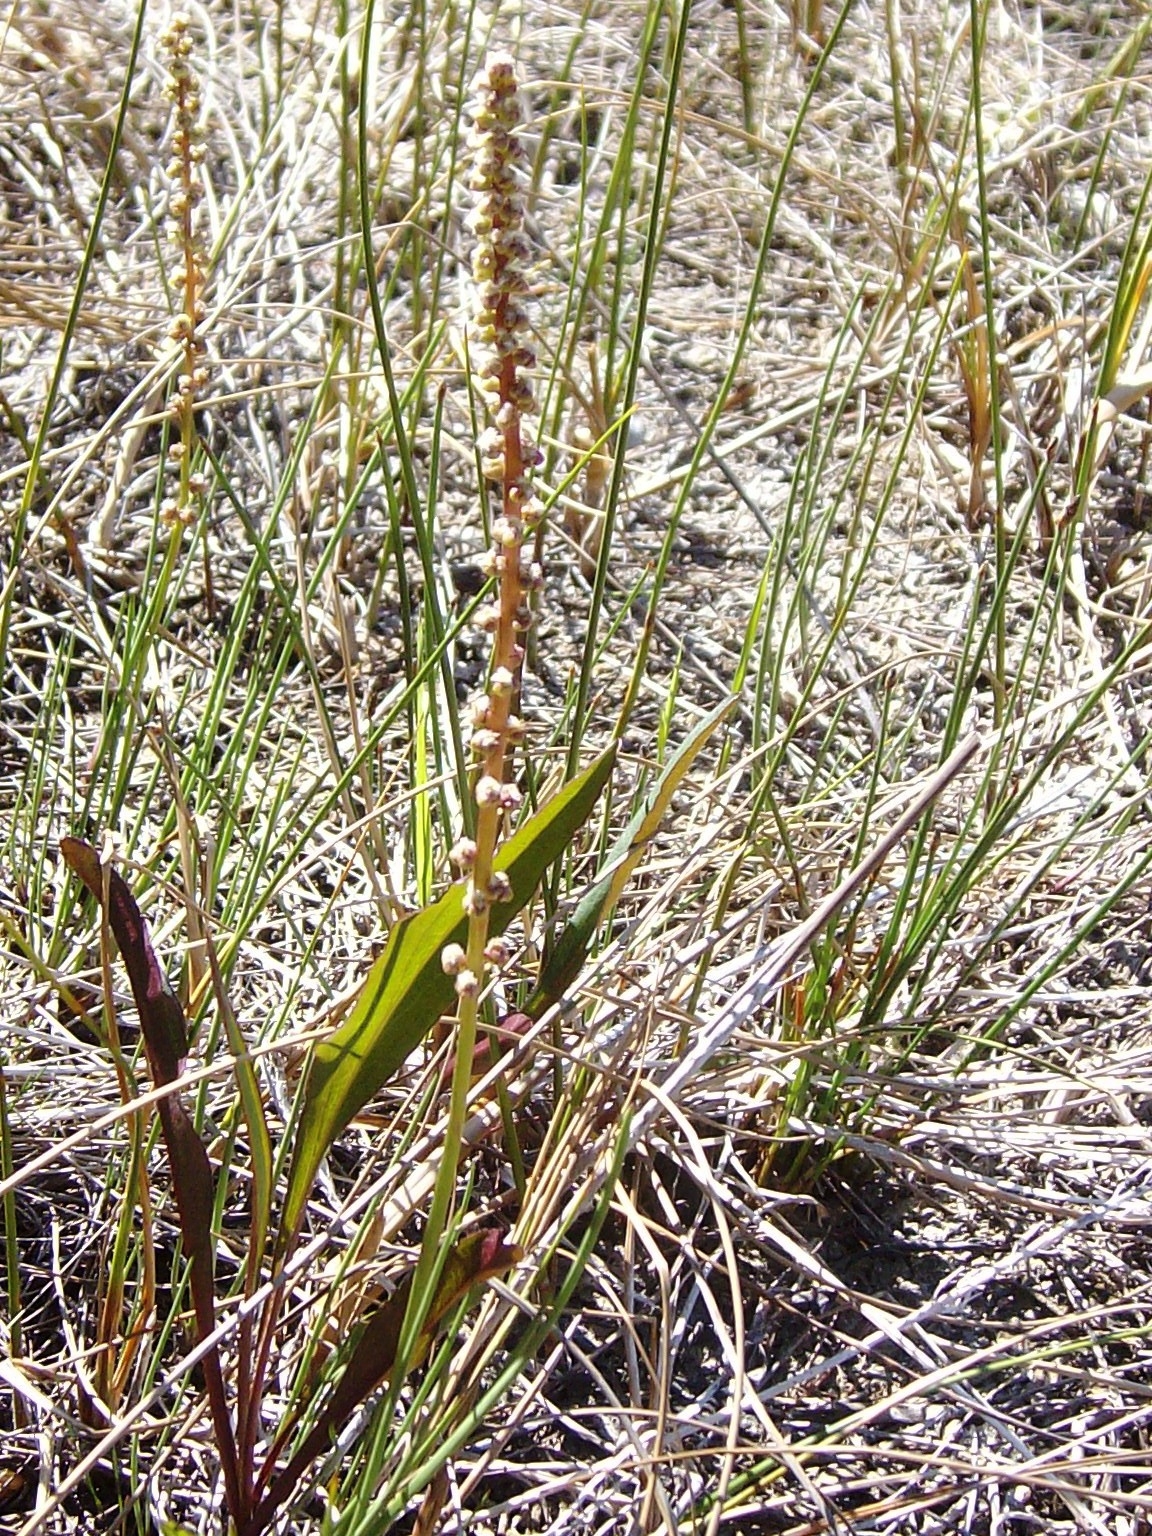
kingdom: Plantae
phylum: Tracheophyta
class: Liliopsida
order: Alismatales
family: Juncaginaceae
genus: Triglochin
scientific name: Triglochin maritima
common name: Sea arrowgrass
